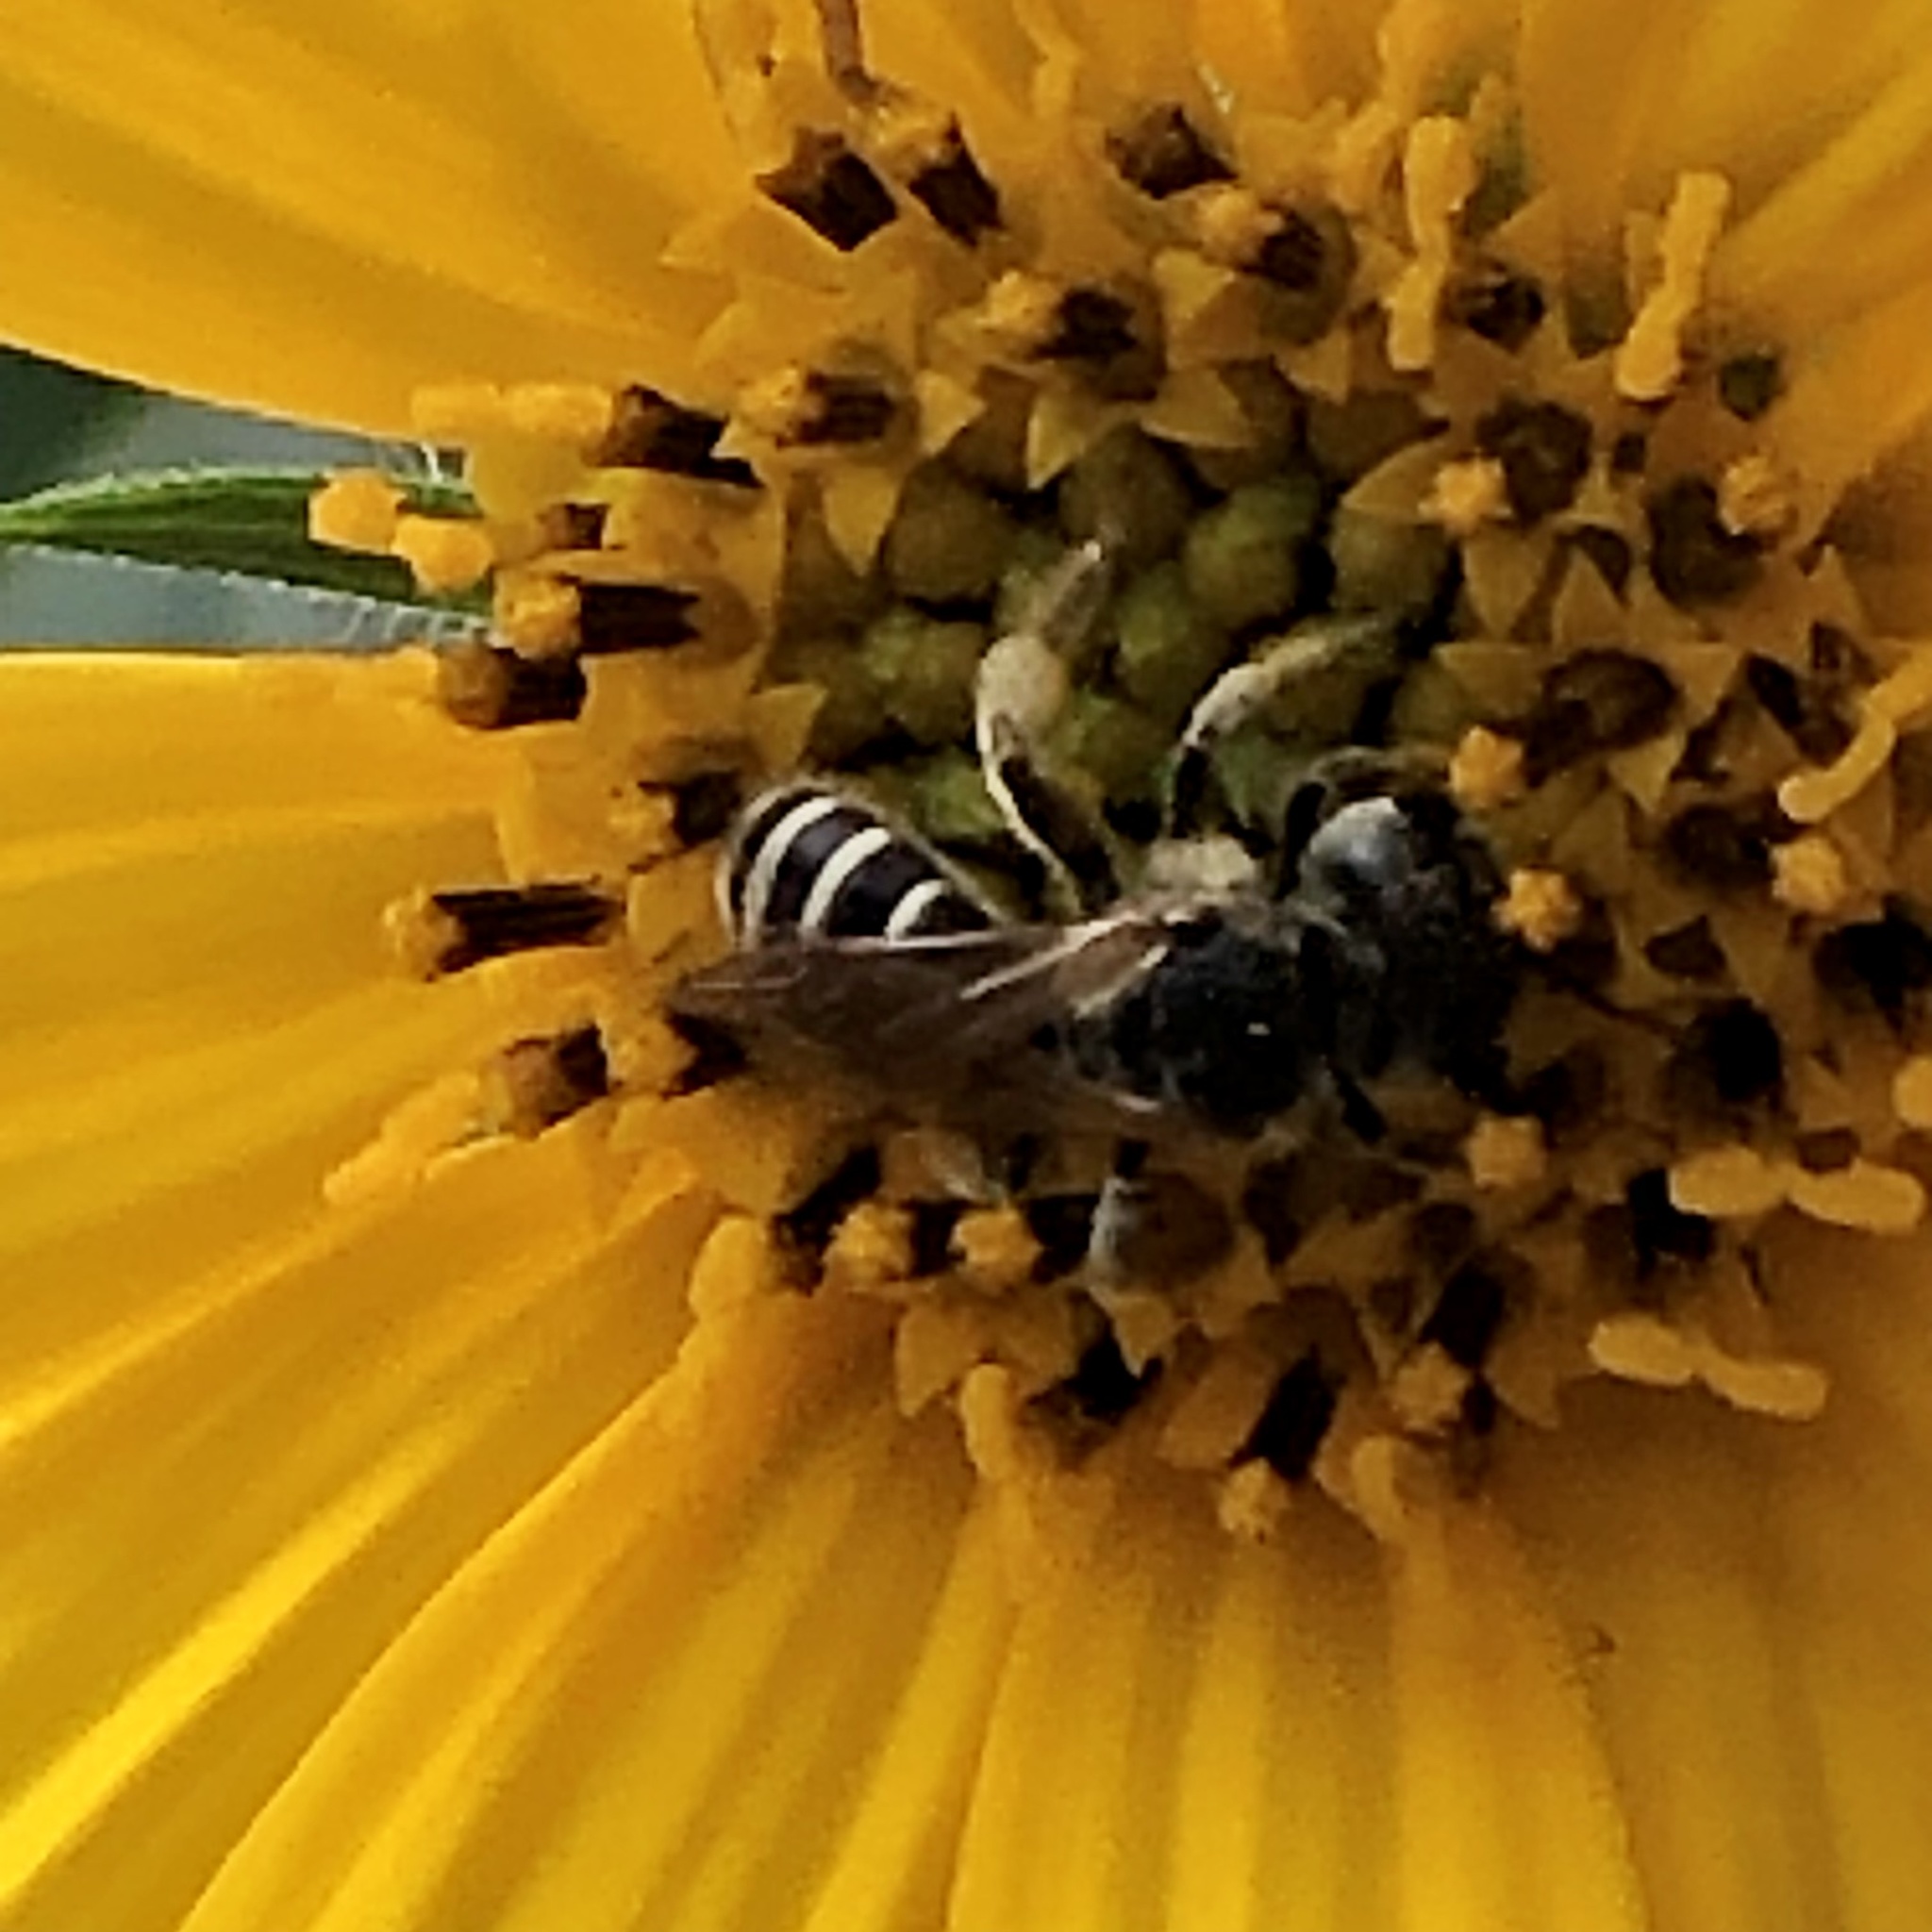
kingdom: Animalia
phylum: Arthropoda
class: Insecta
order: Hymenoptera
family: Halictidae
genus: Halictus
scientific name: Halictus ligatus
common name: Ligated furrow bee
